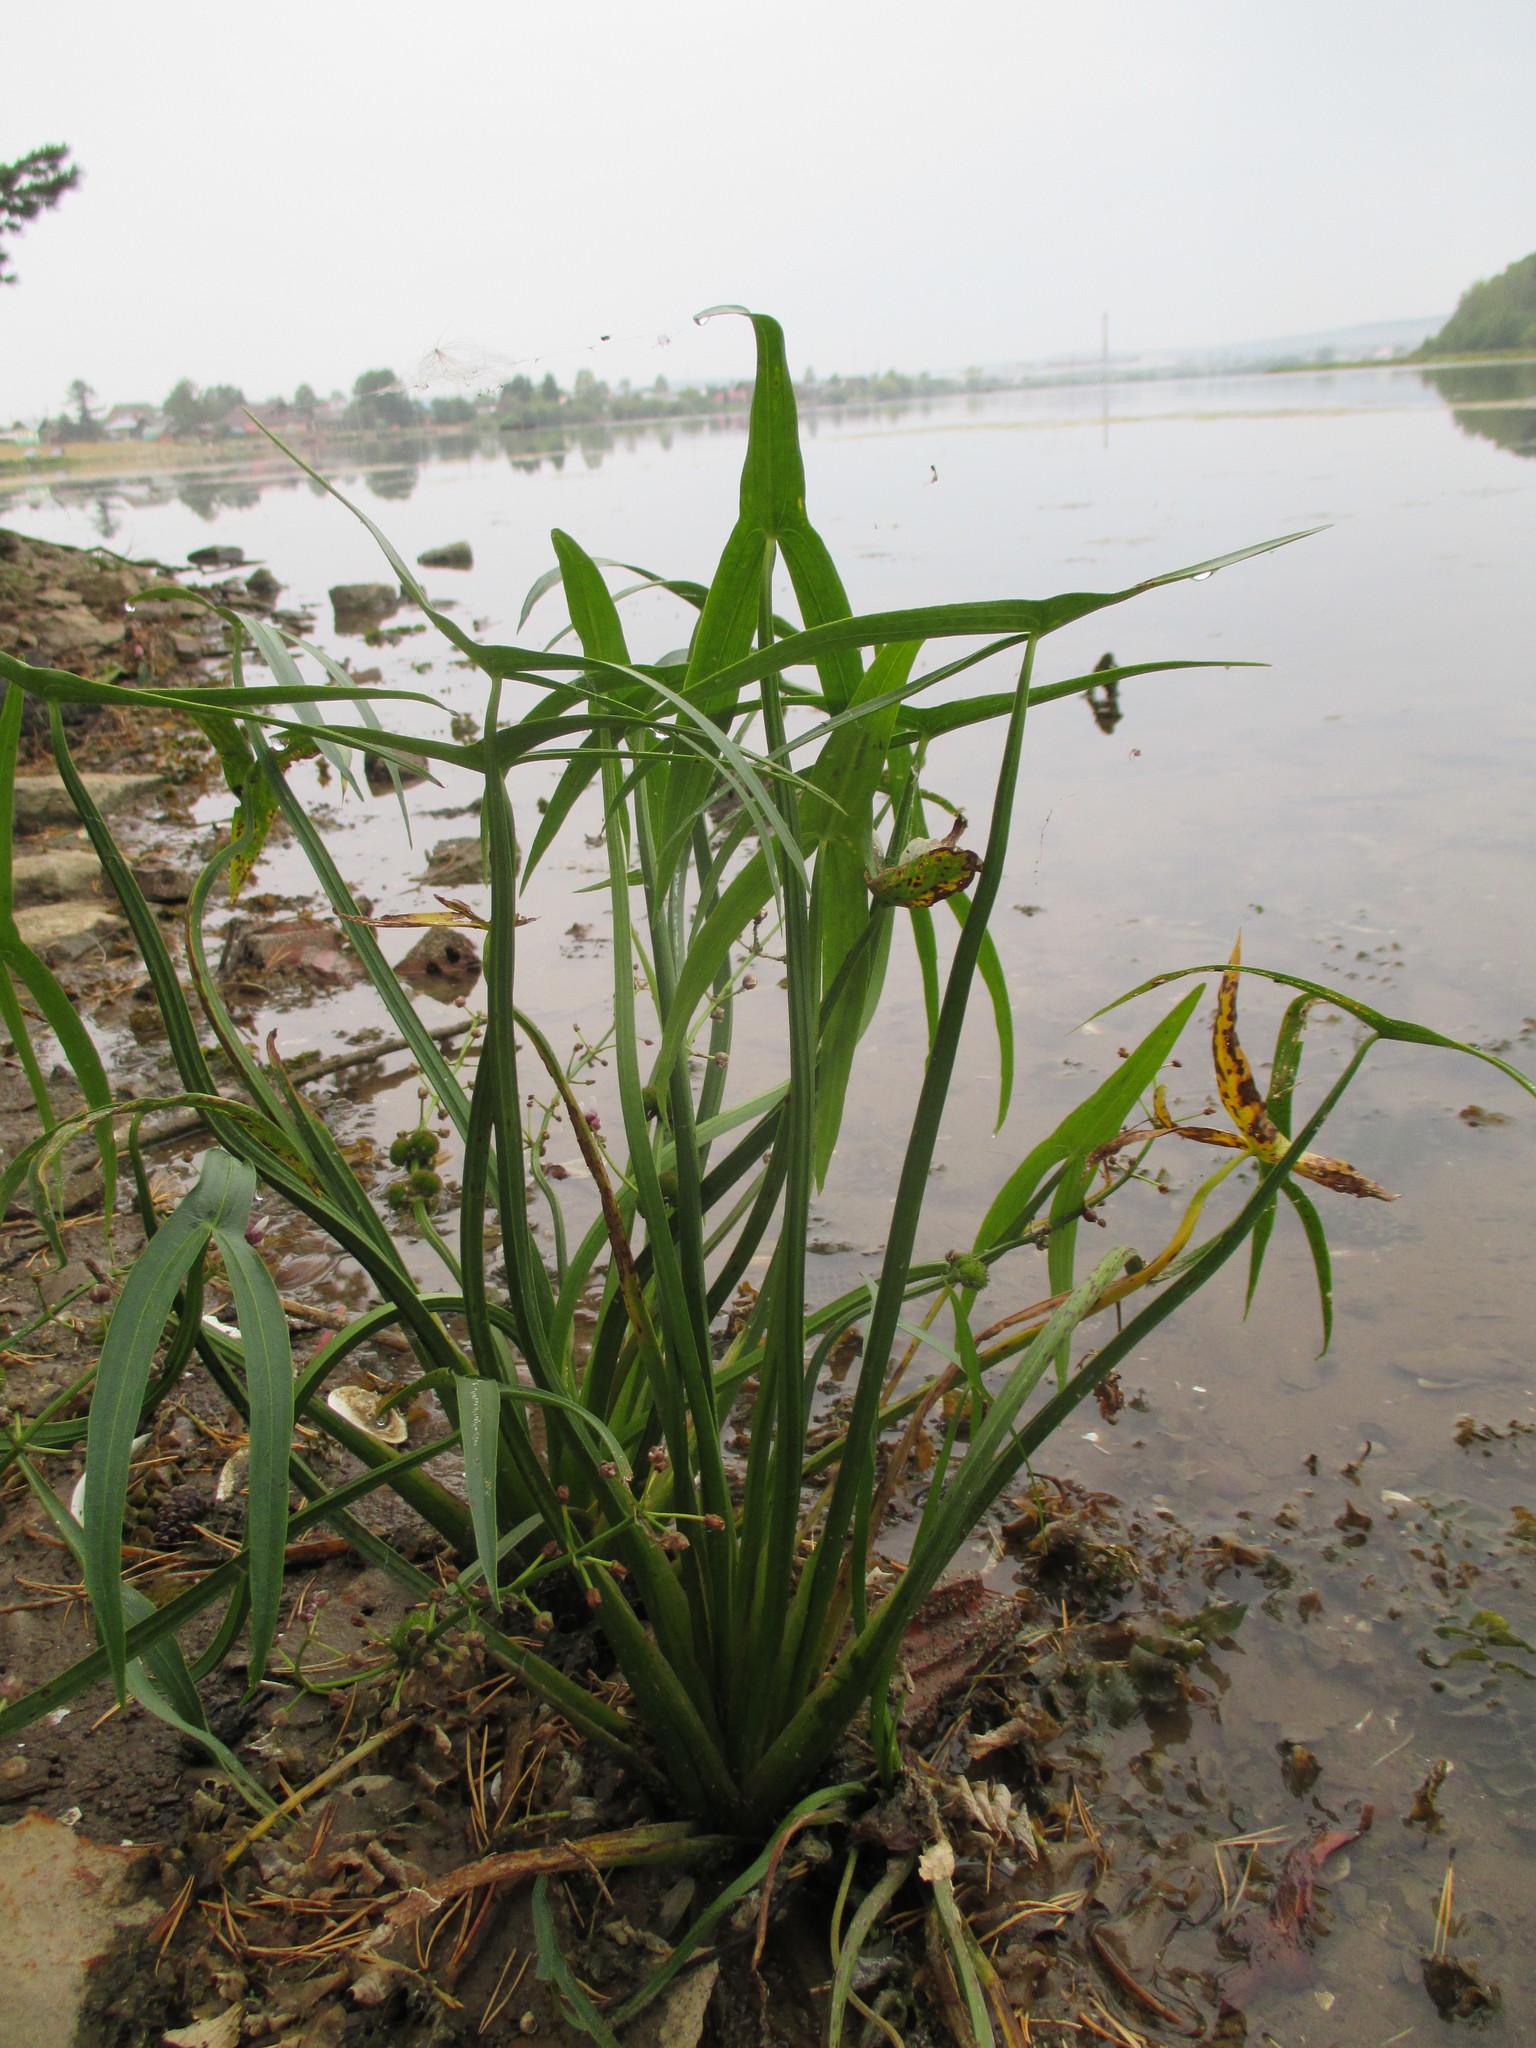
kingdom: Plantae
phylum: Tracheophyta
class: Liliopsida
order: Alismatales
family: Alismataceae
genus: Sagittaria
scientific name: Sagittaria sagittifolia
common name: Arrowhead
